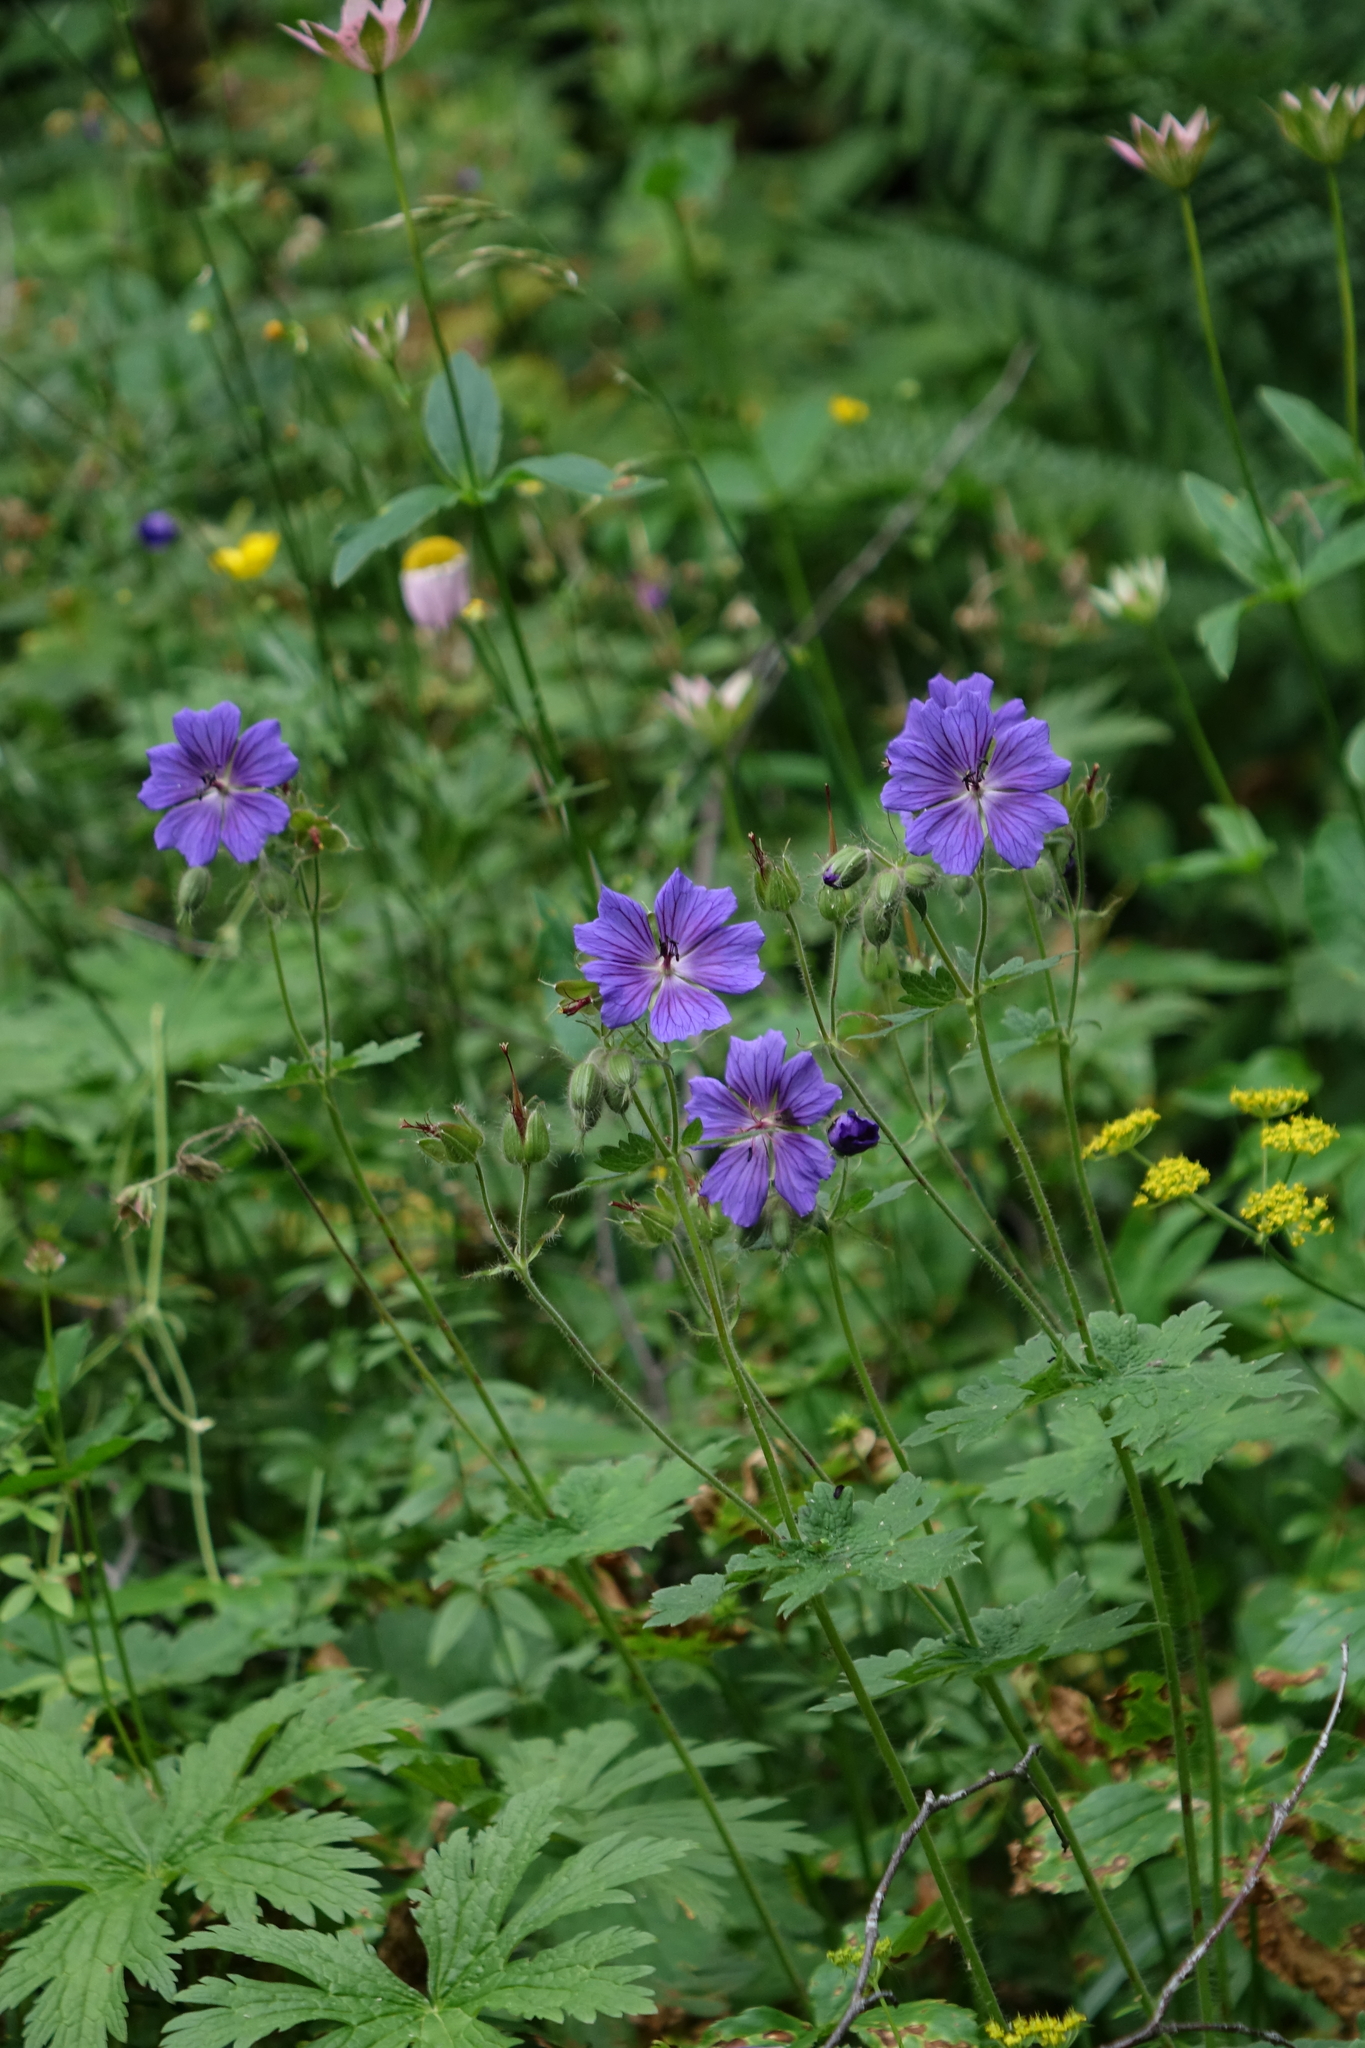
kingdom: Plantae
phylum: Tracheophyta
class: Magnoliopsida
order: Geraniales
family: Geraniaceae
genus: Geranium
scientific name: Geranium platypetalum
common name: Glandular crane's-bill
